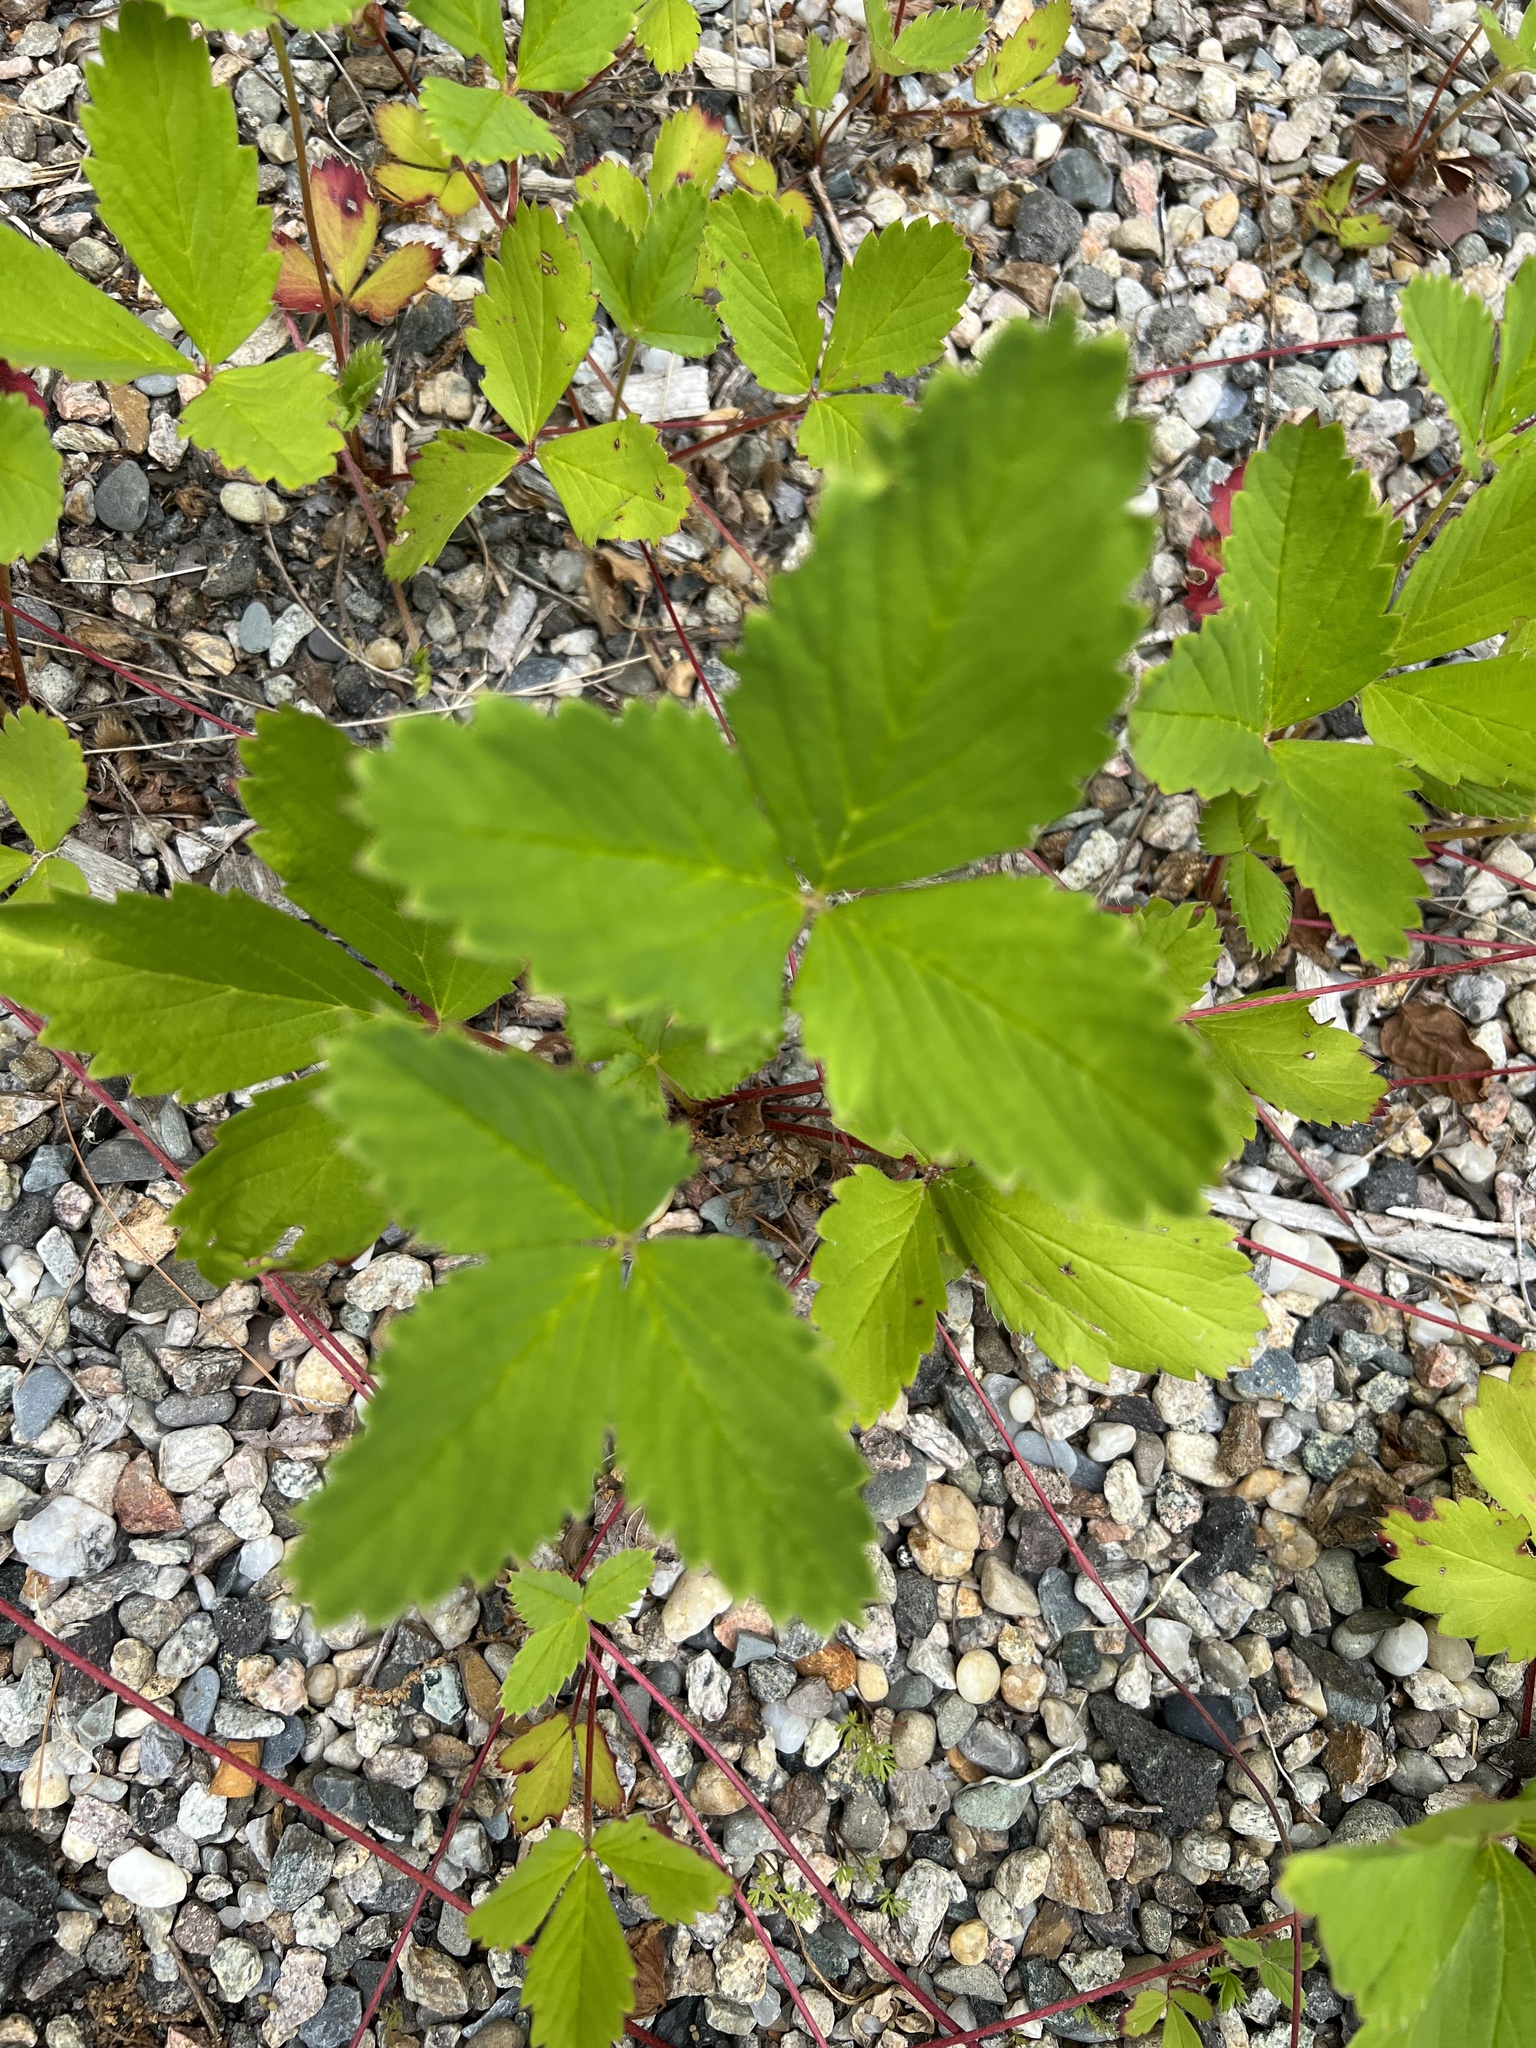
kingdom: Plantae
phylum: Tracheophyta
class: Magnoliopsida
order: Rosales
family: Rosaceae
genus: Fragaria
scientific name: Fragaria virginiana
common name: Thickleaved wild strawberry
